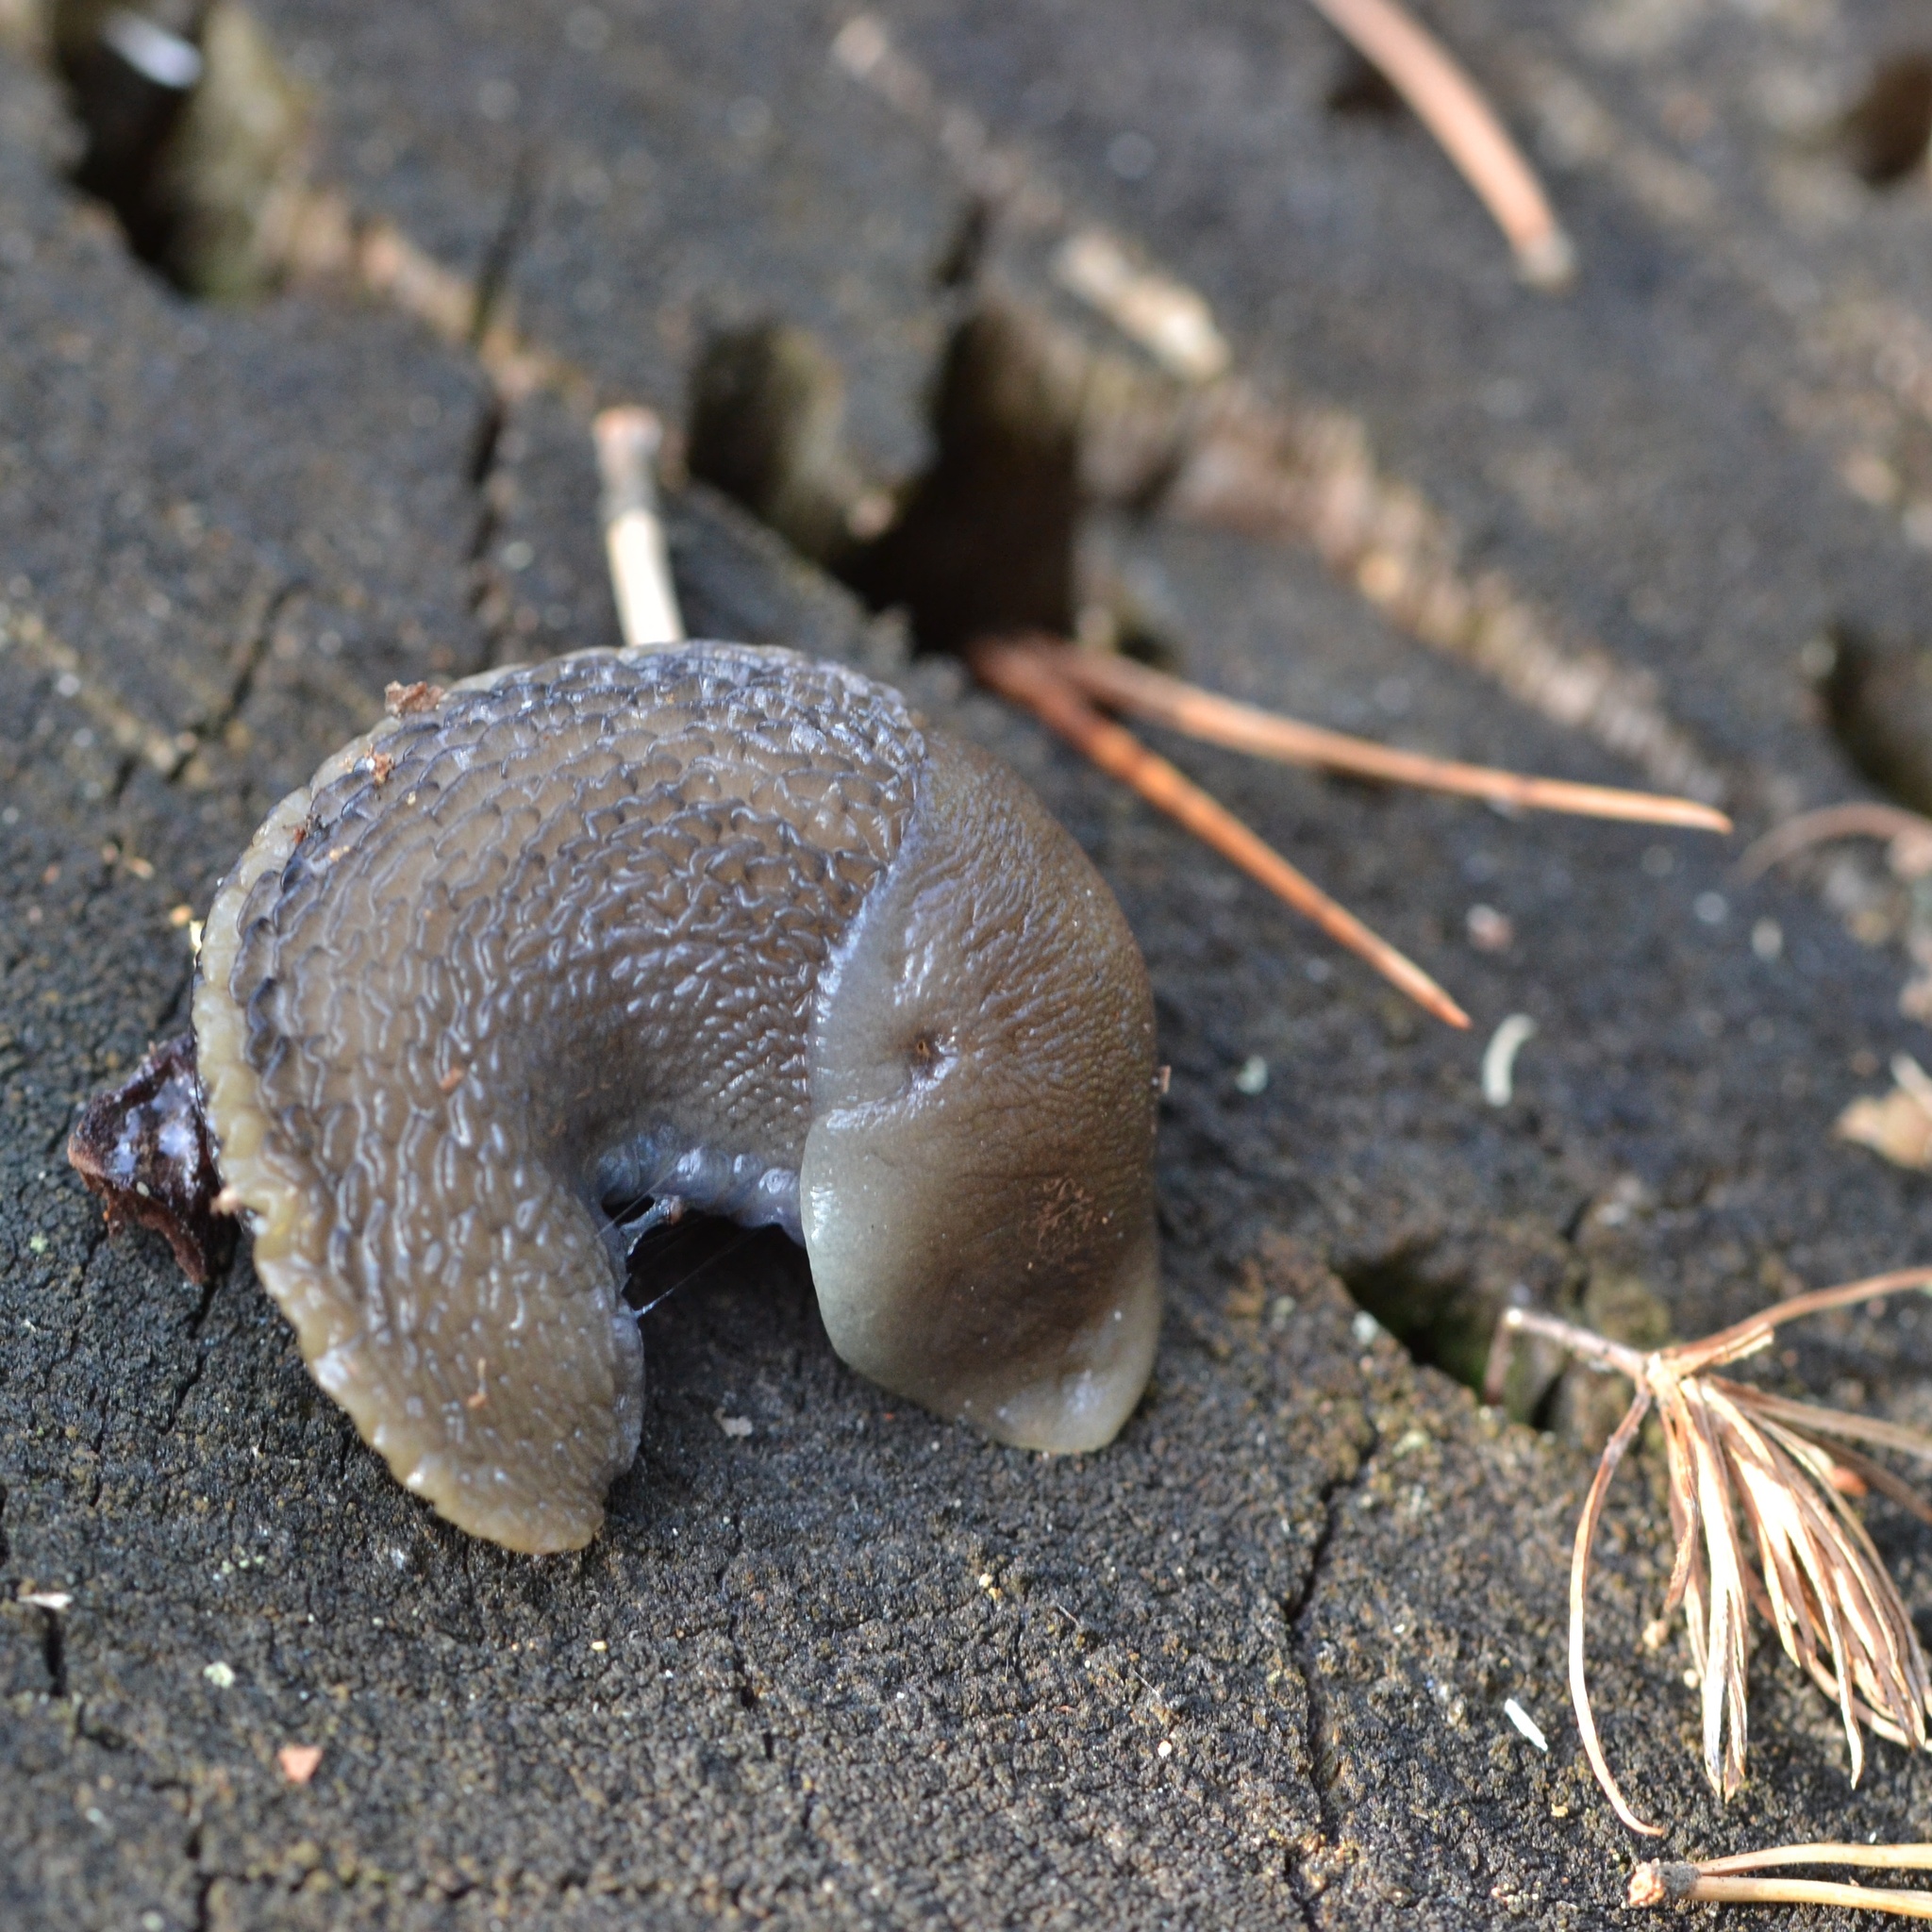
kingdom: Animalia
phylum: Mollusca
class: Gastropoda
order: Stylommatophora
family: Limacidae
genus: Limax
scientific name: Limax cinereoniger
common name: Ash-black slug
